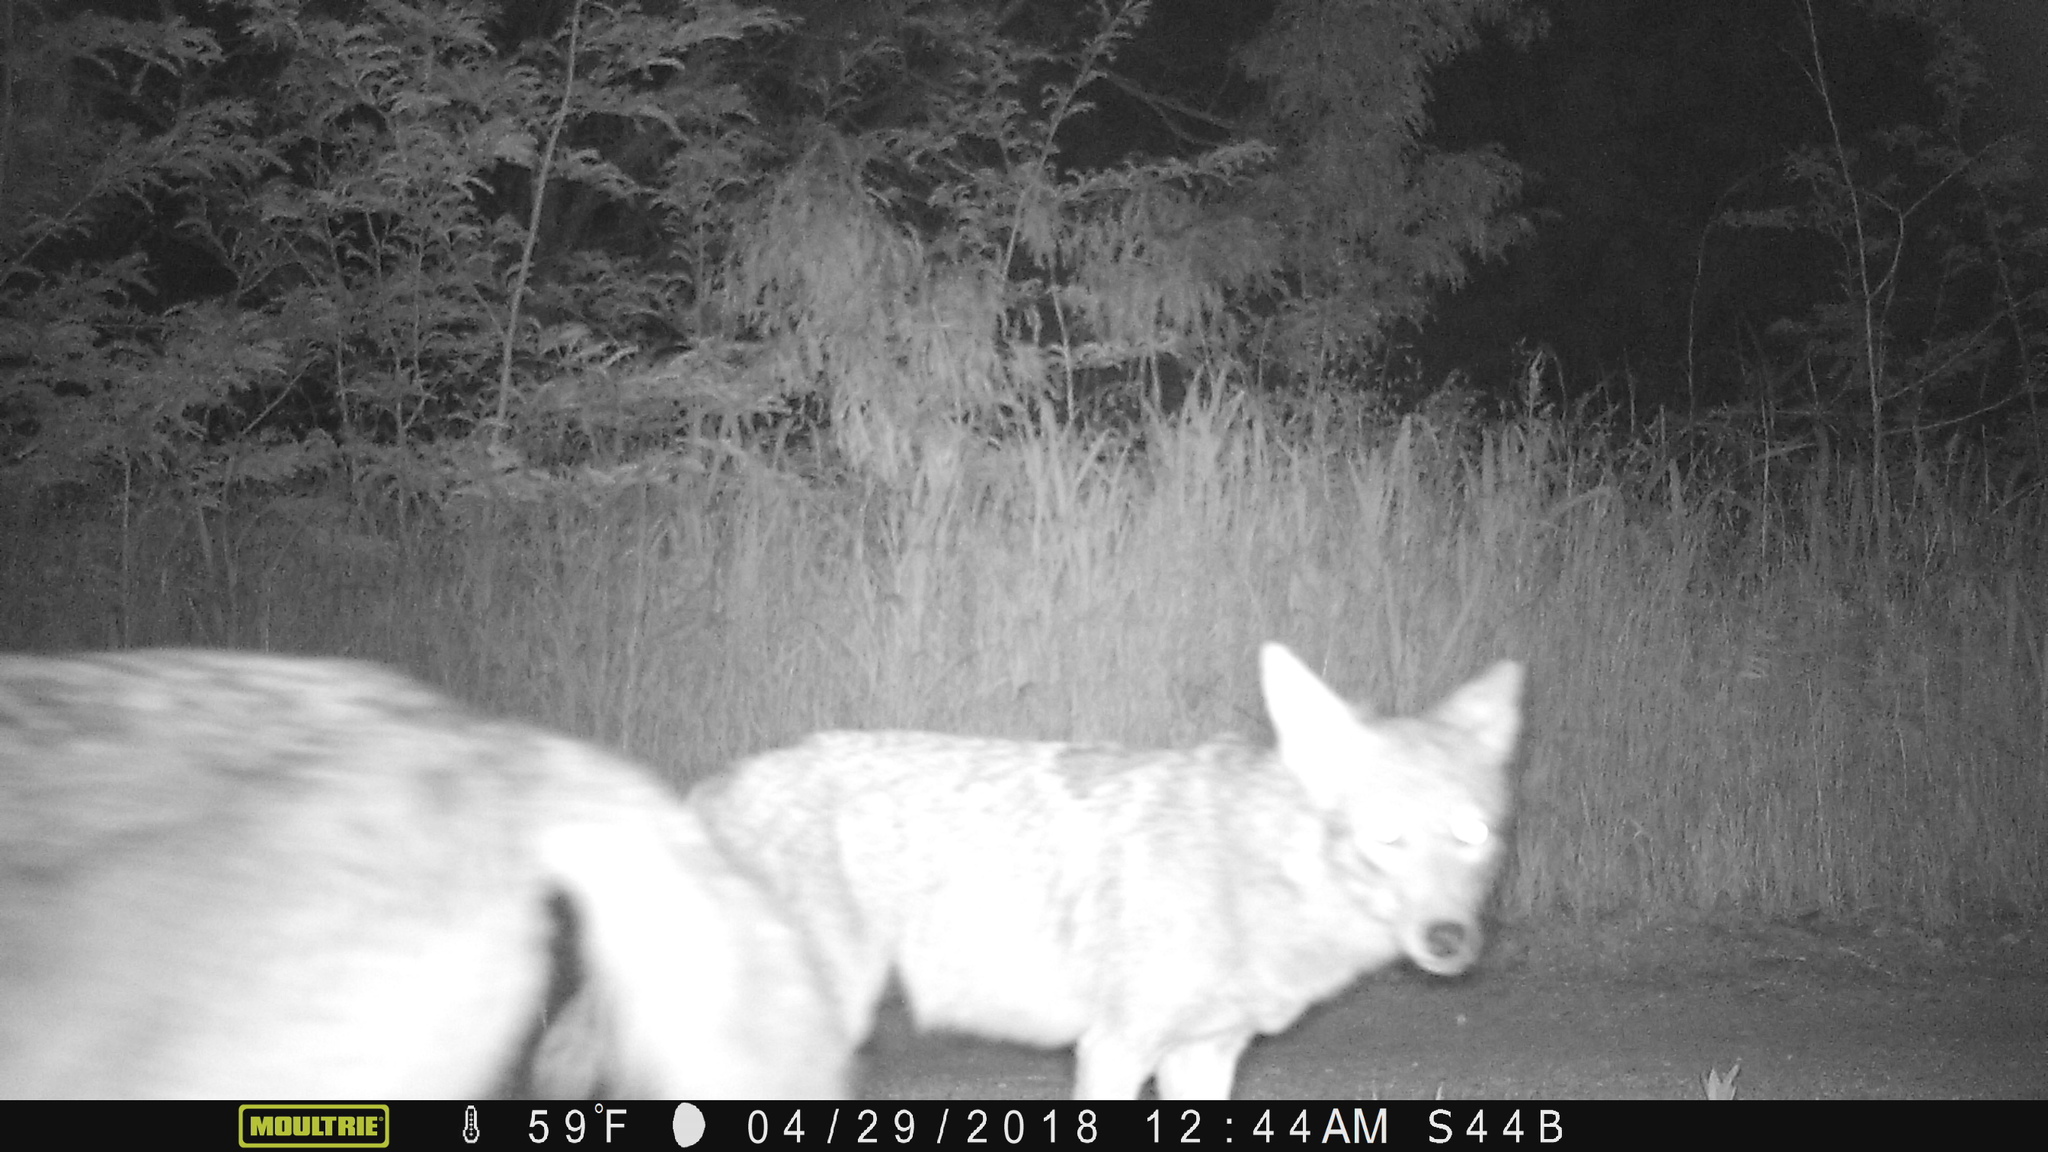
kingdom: Animalia
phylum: Chordata
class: Mammalia
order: Carnivora
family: Canidae
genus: Canis
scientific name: Canis latrans
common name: Coyote
